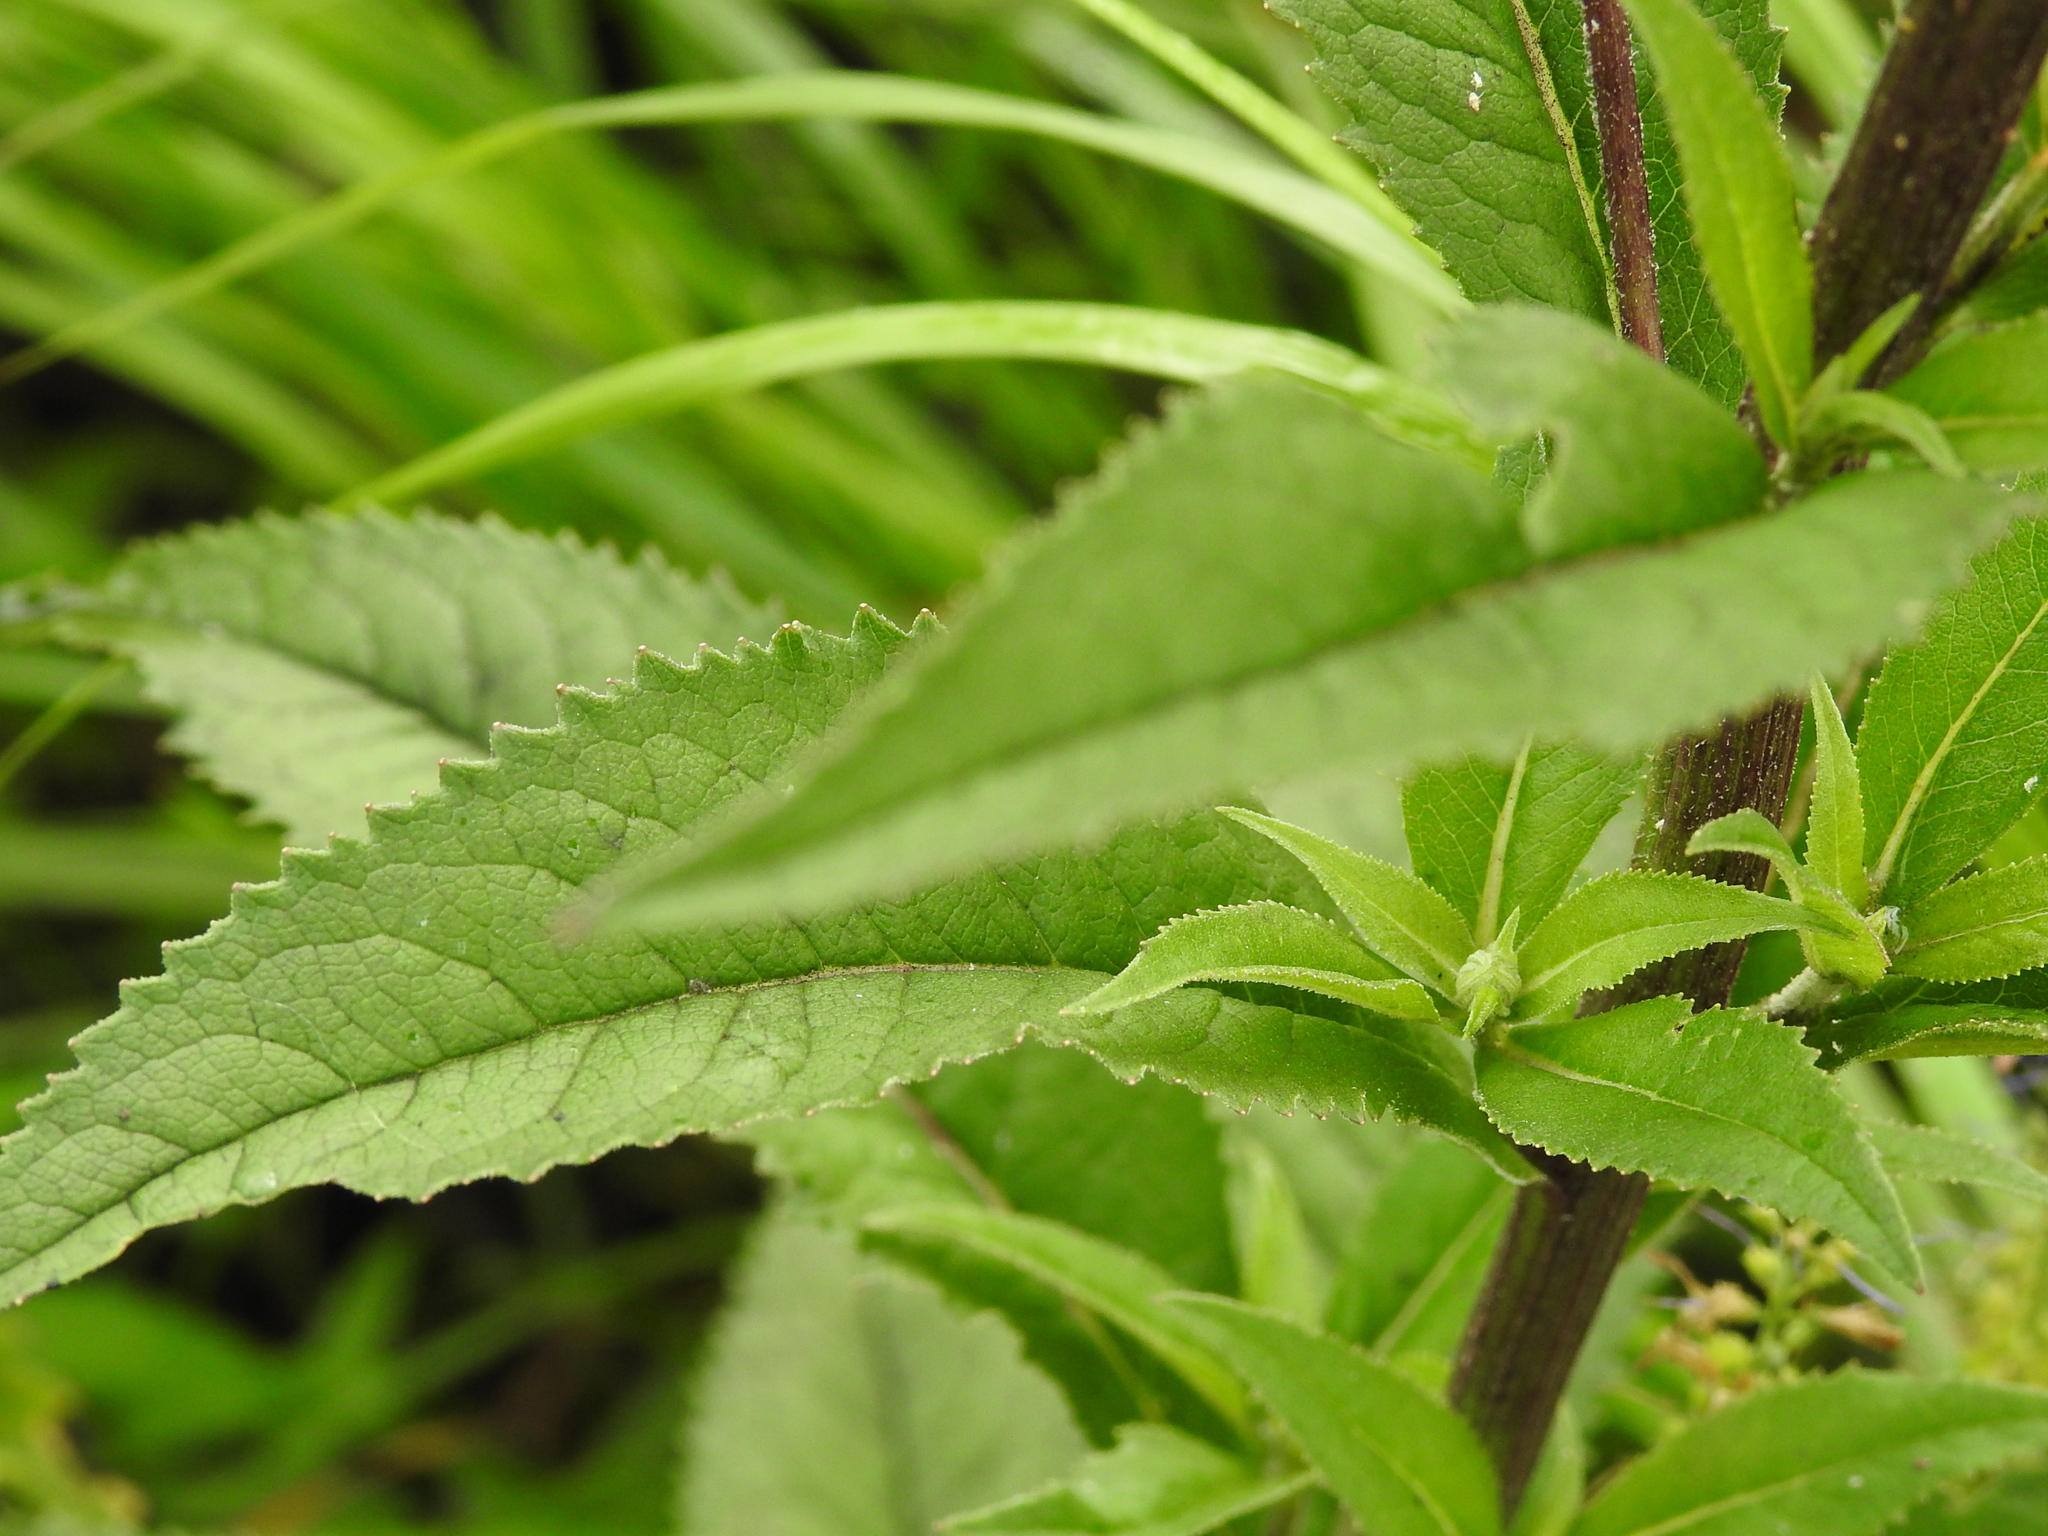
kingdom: Plantae
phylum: Tracheophyta
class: Magnoliopsida
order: Asterales
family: Asteraceae
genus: Senecio
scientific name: Senecio nemorensis
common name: Alpine ragwort
